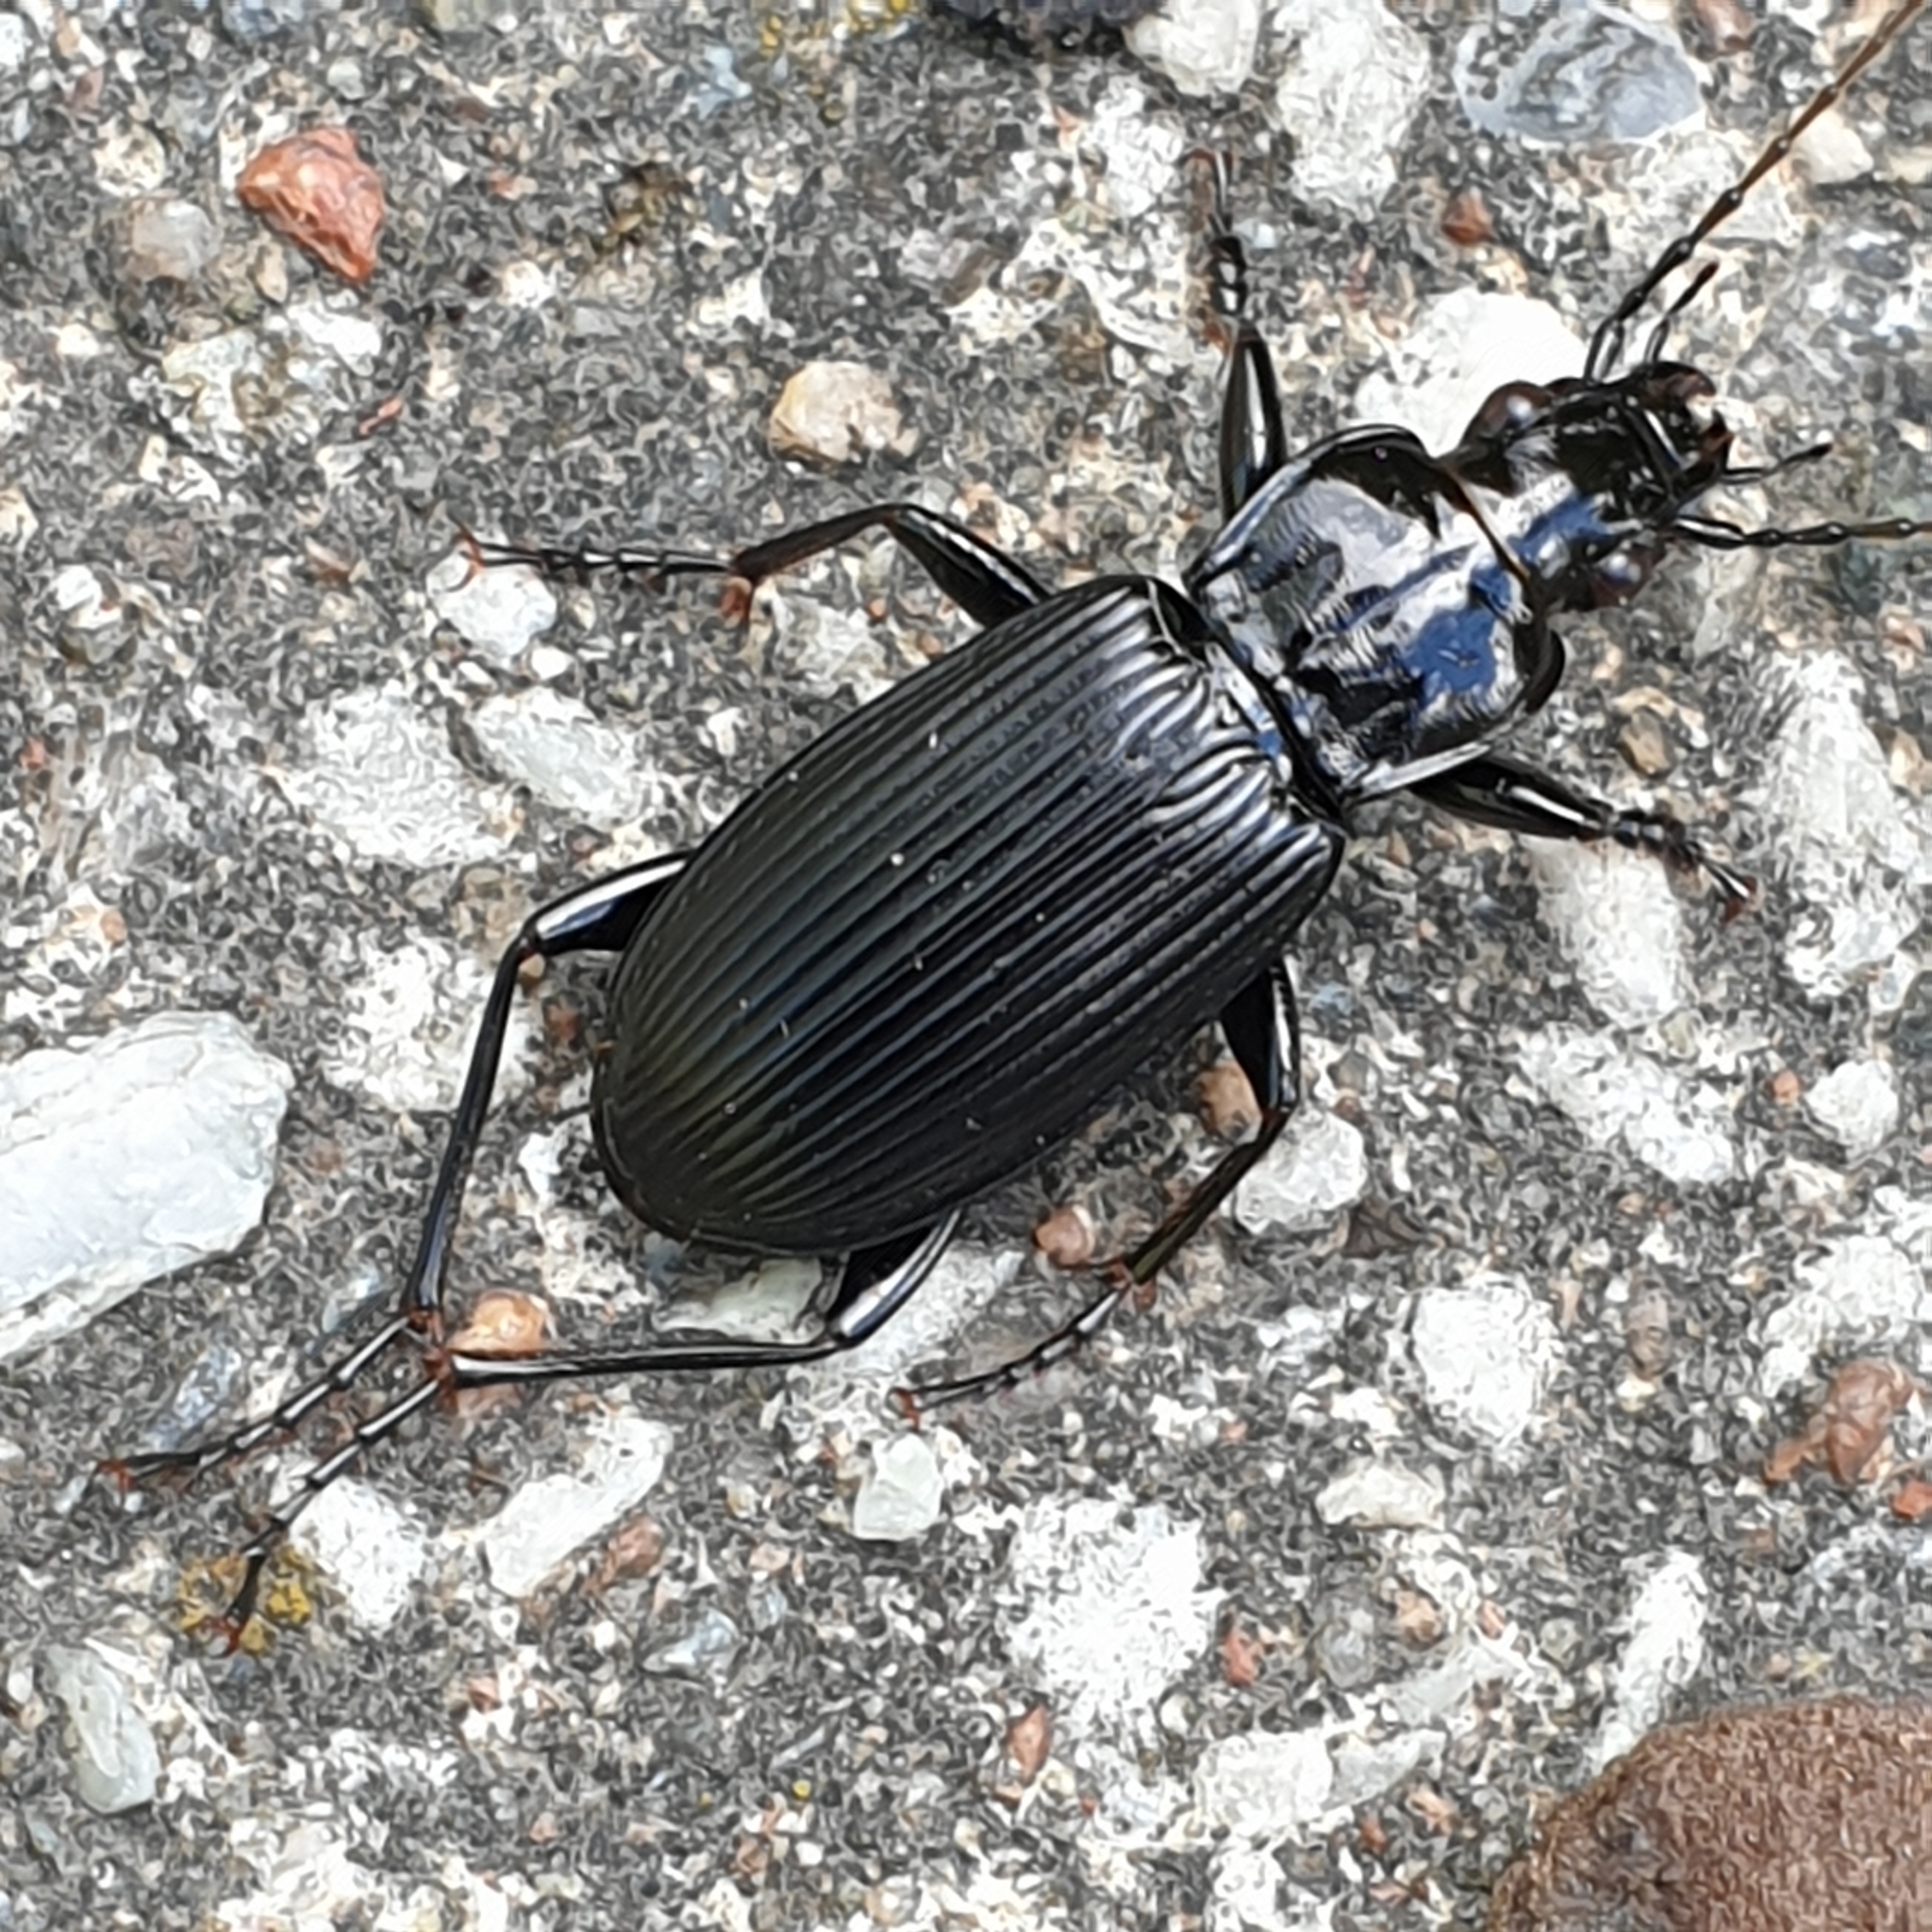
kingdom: Animalia
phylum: Arthropoda
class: Insecta
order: Coleoptera
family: Carabidae
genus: Pterostichus
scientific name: Pterostichus niger
